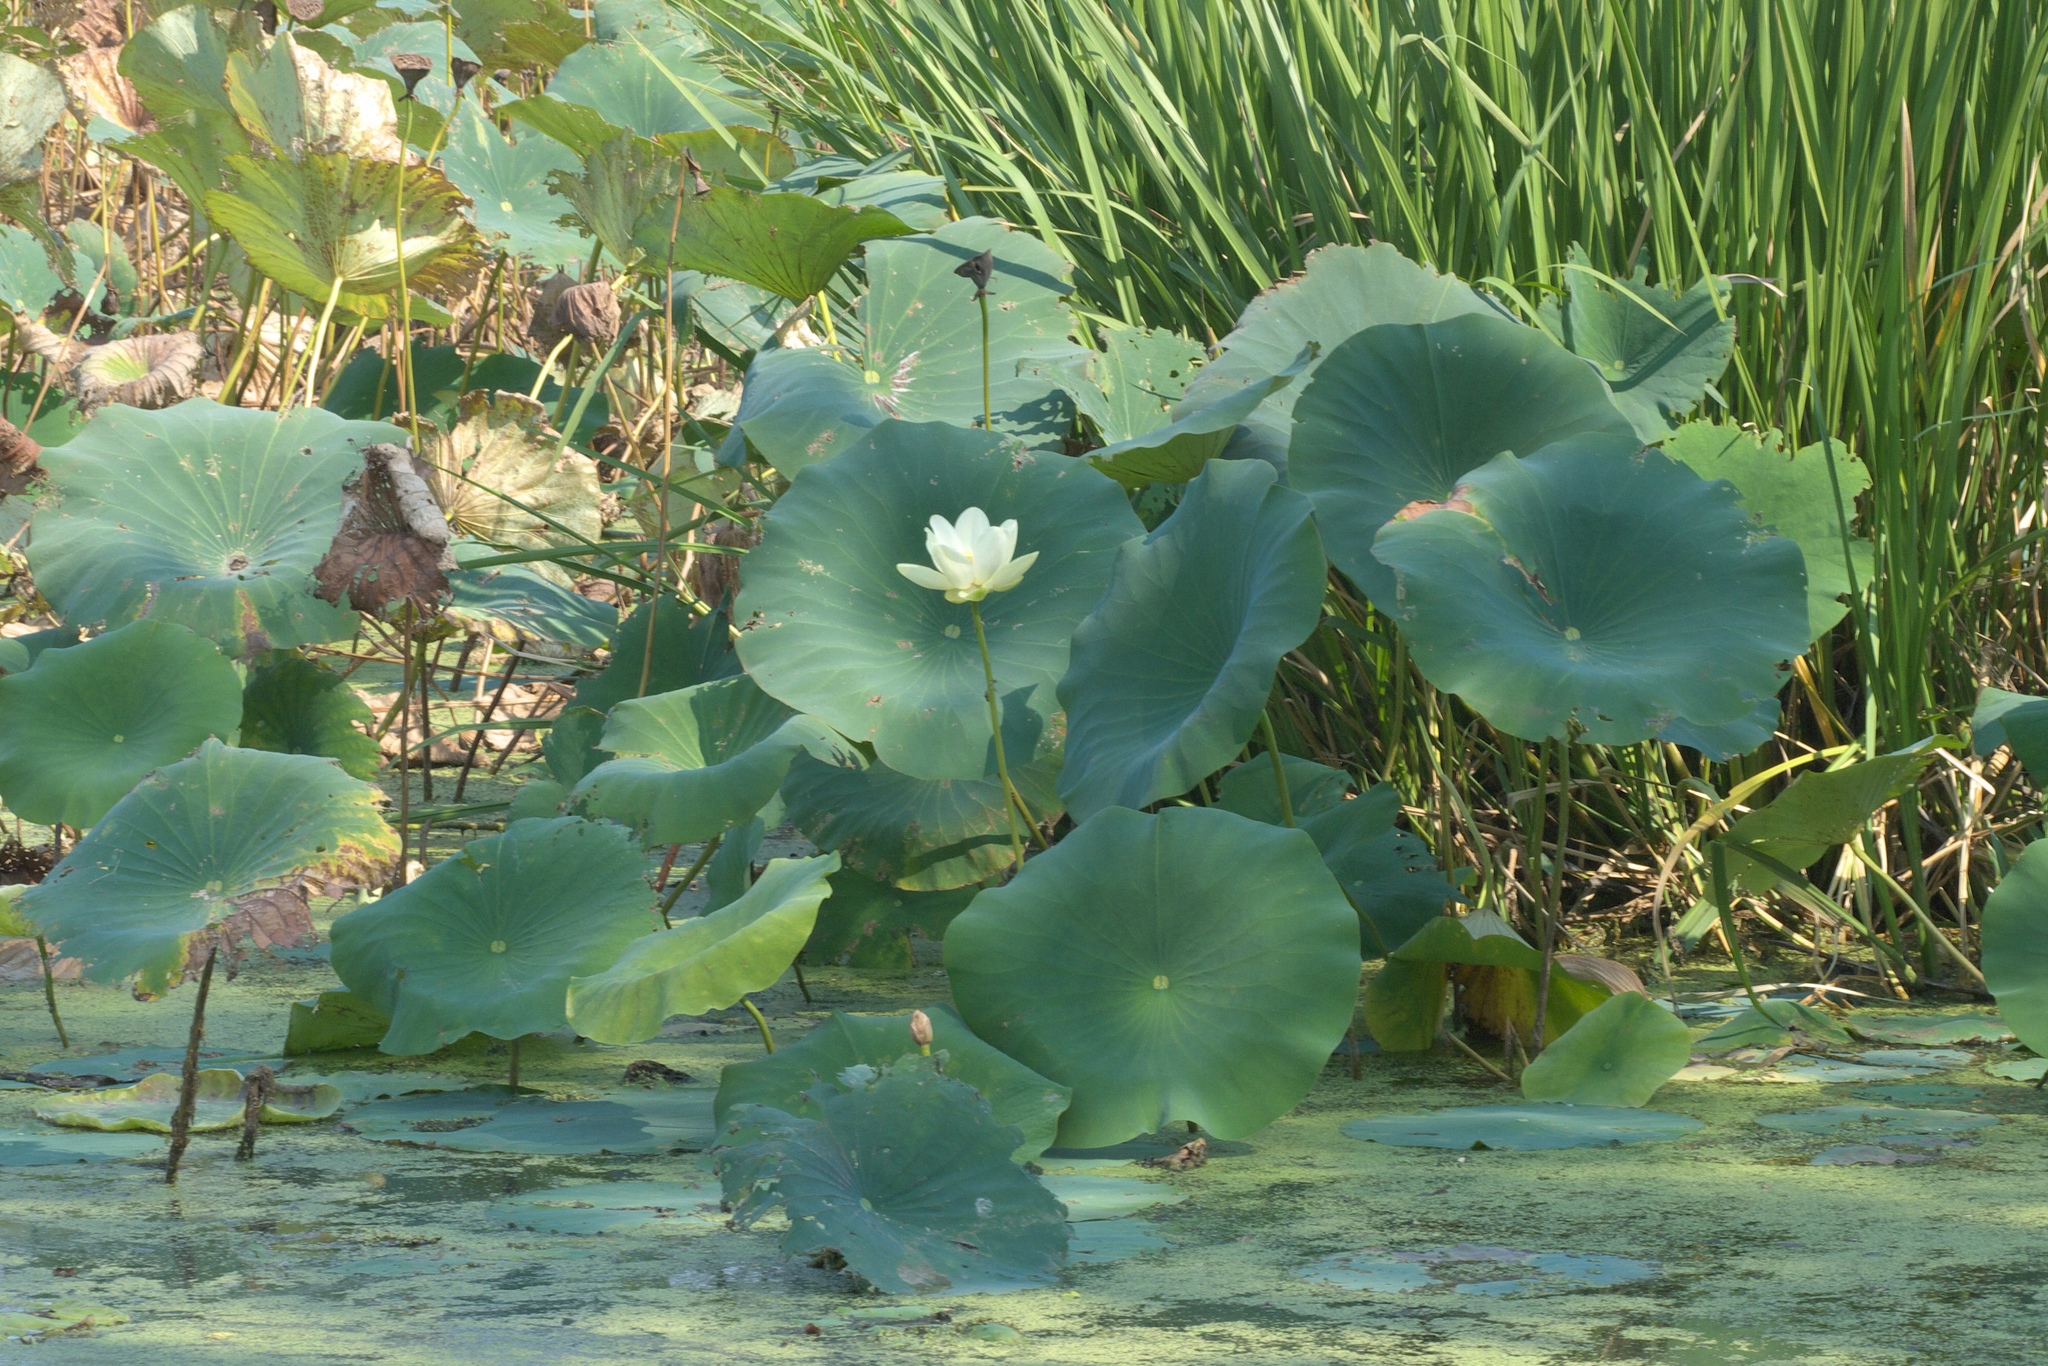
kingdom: Plantae
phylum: Tracheophyta
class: Magnoliopsida
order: Proteales
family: Nelumbonaceae
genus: Nelumbo
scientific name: Nelumbo lutea
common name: American lotus
